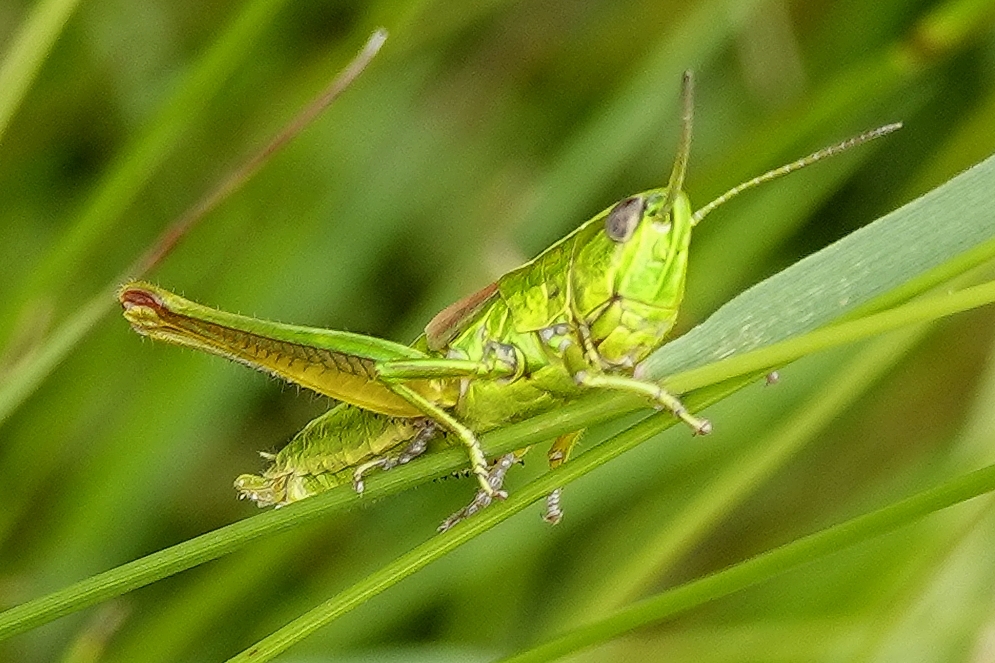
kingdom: Animalia
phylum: Arthropoda
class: Insecta
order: Orthoptera
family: Acrididae
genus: Euthystira
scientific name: Euthystira brachyptera
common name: Small gold grasshopper
